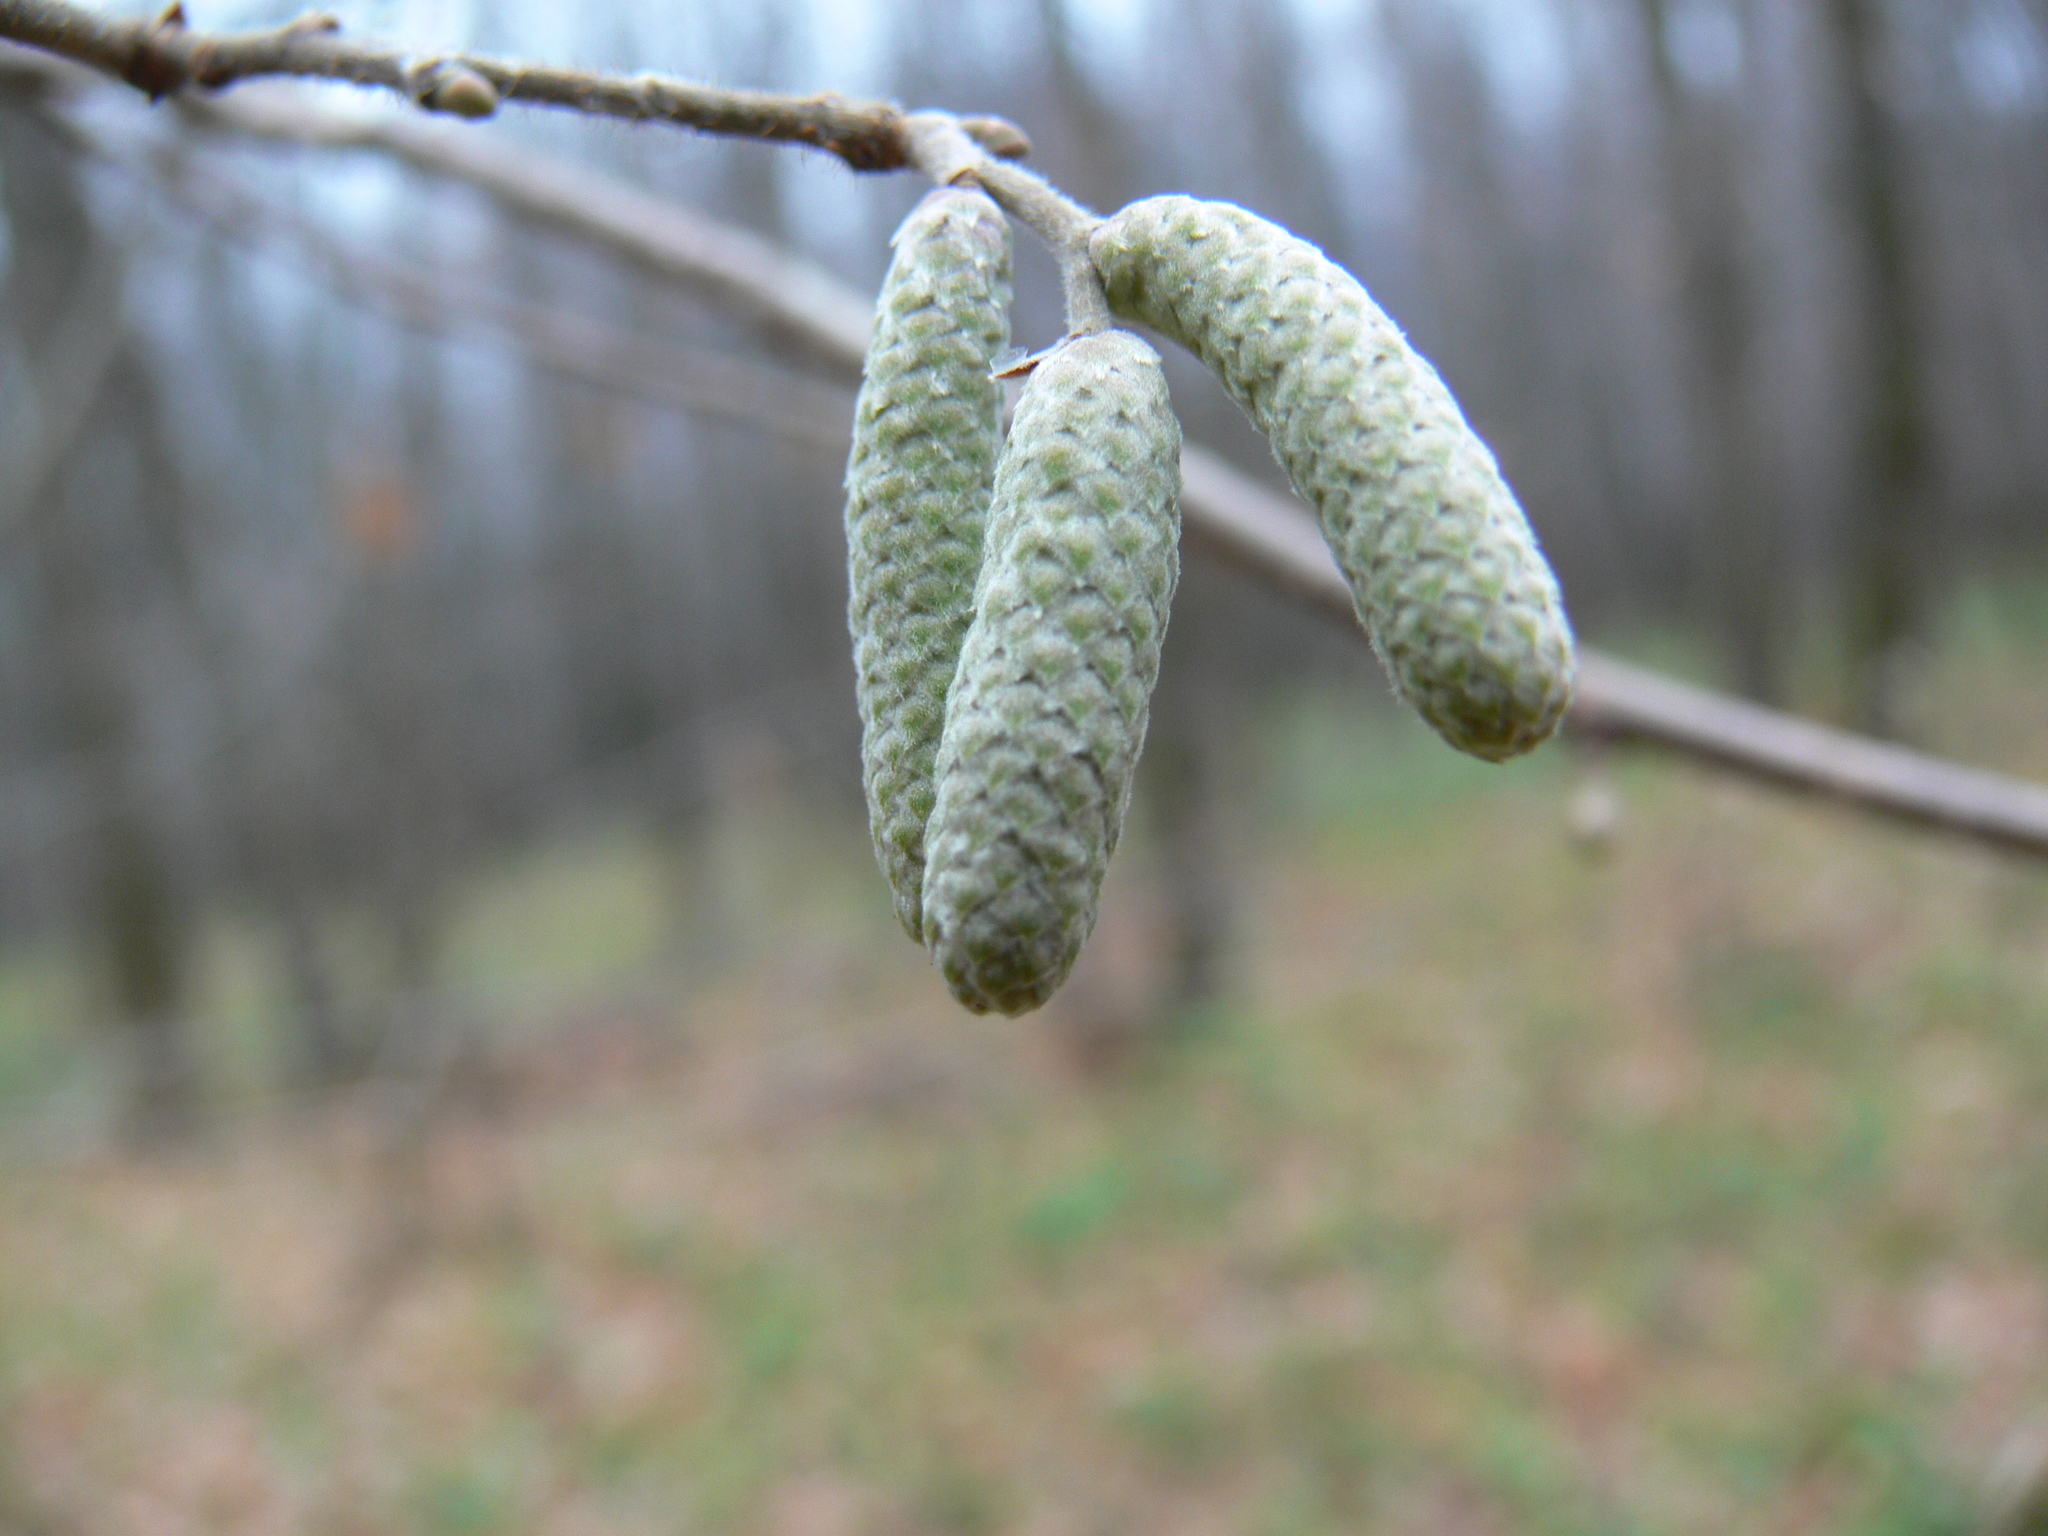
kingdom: Plantae
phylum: Tracheophyta
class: Magnoliopsida
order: Fagales
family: Betulaceae
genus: Corylus
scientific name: Corylus avellana
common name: European hazel
